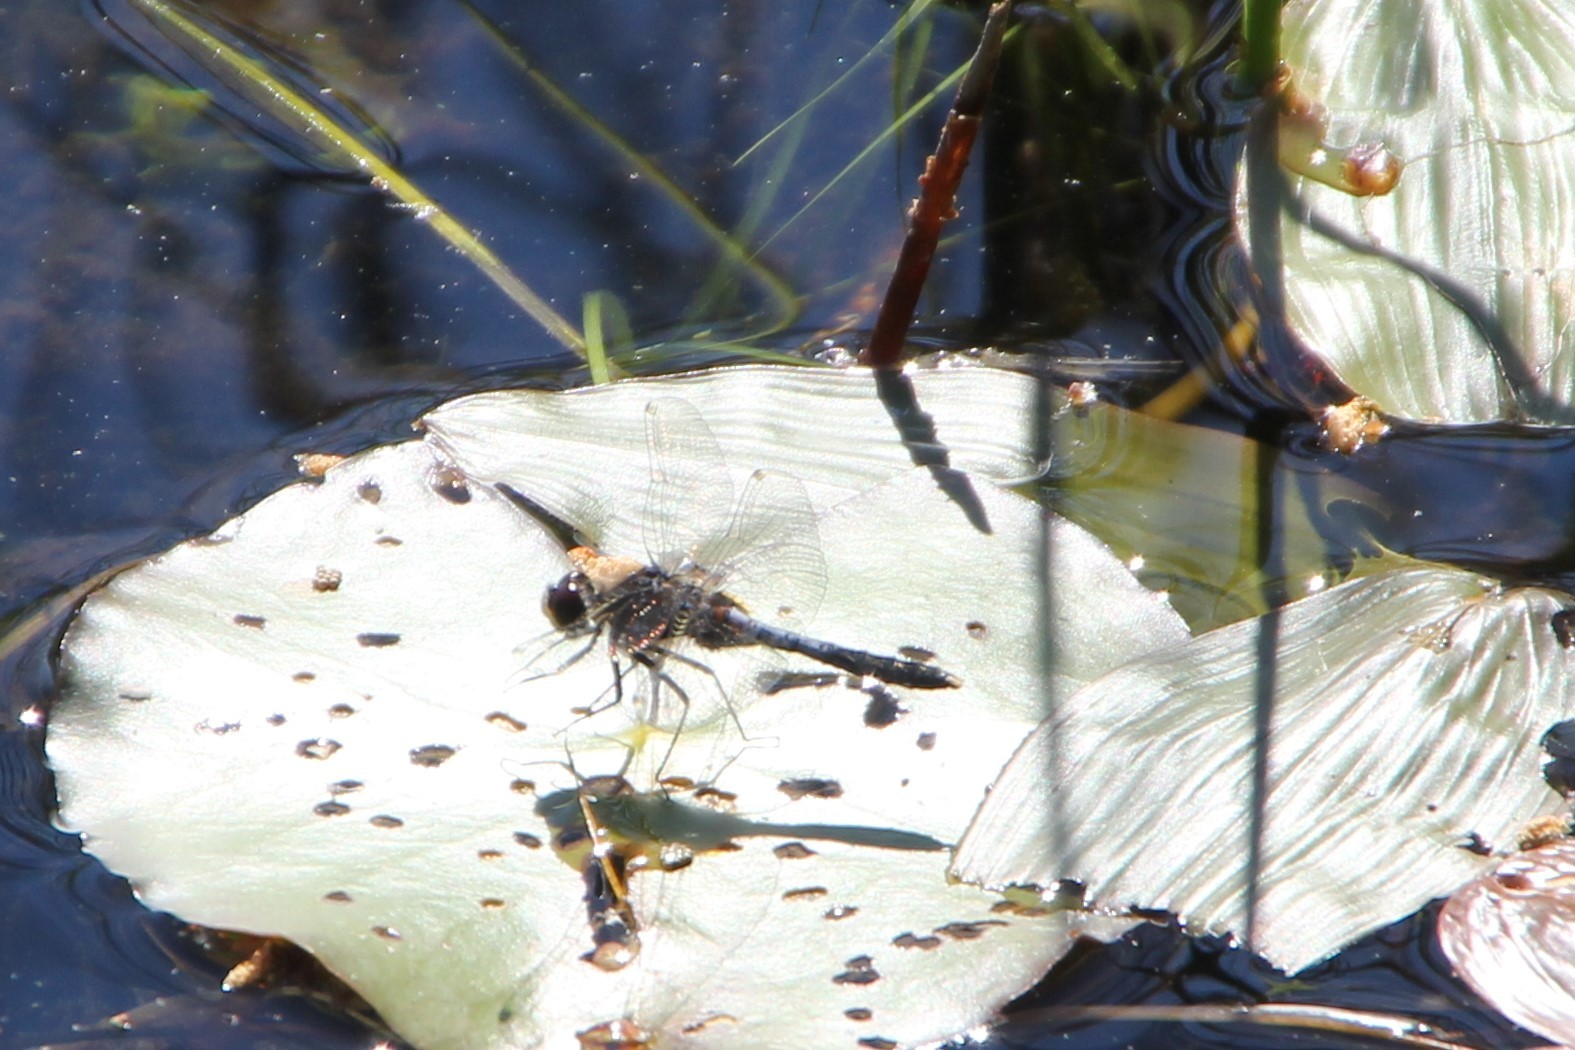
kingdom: Animalia
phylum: Arthropoda
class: Insecta
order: Odonata
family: Libellulidae
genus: Leucorrhinia
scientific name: Leucorrhinia caudalis
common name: Lilypad whiteface
